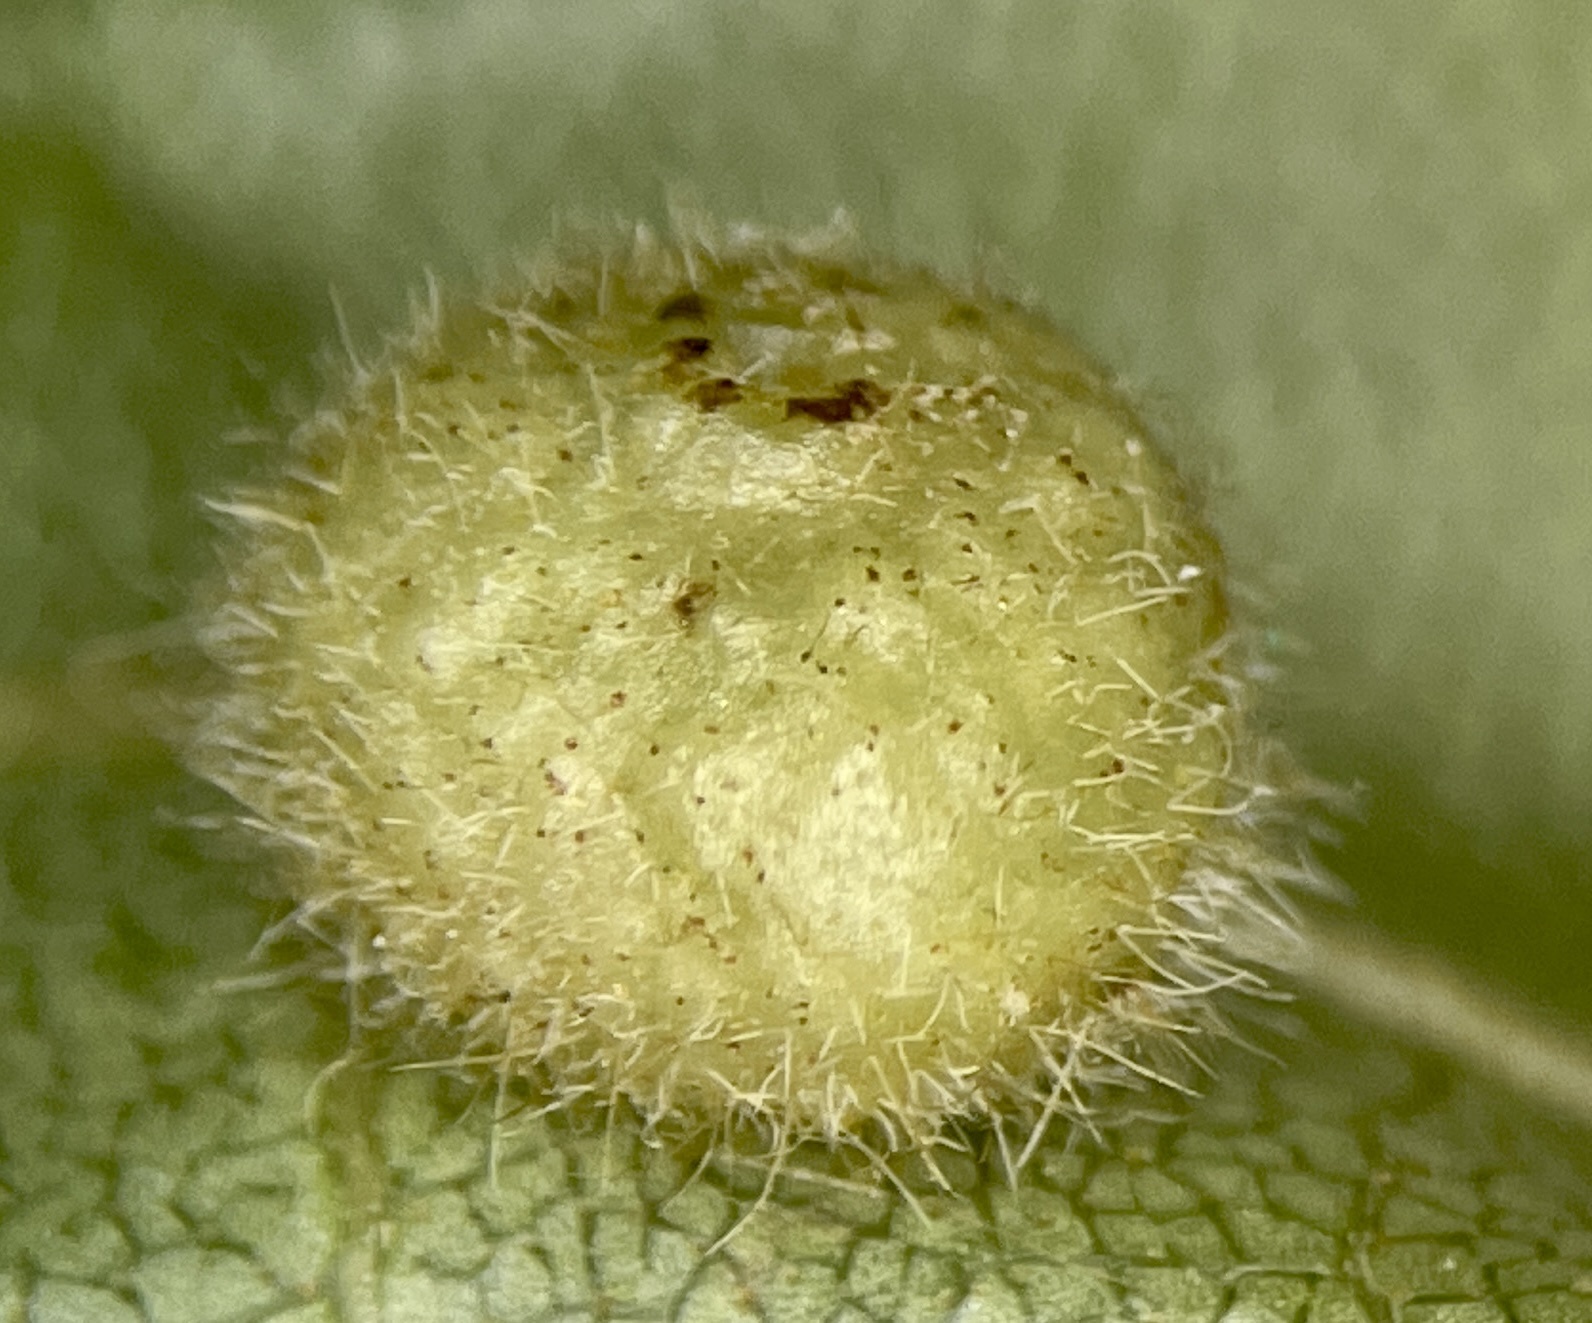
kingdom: Animalia
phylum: Arthropoda
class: Insecta
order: Diptera
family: Cecidomyiidae
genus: Caryomyia
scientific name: Caryomyia thompsoni
